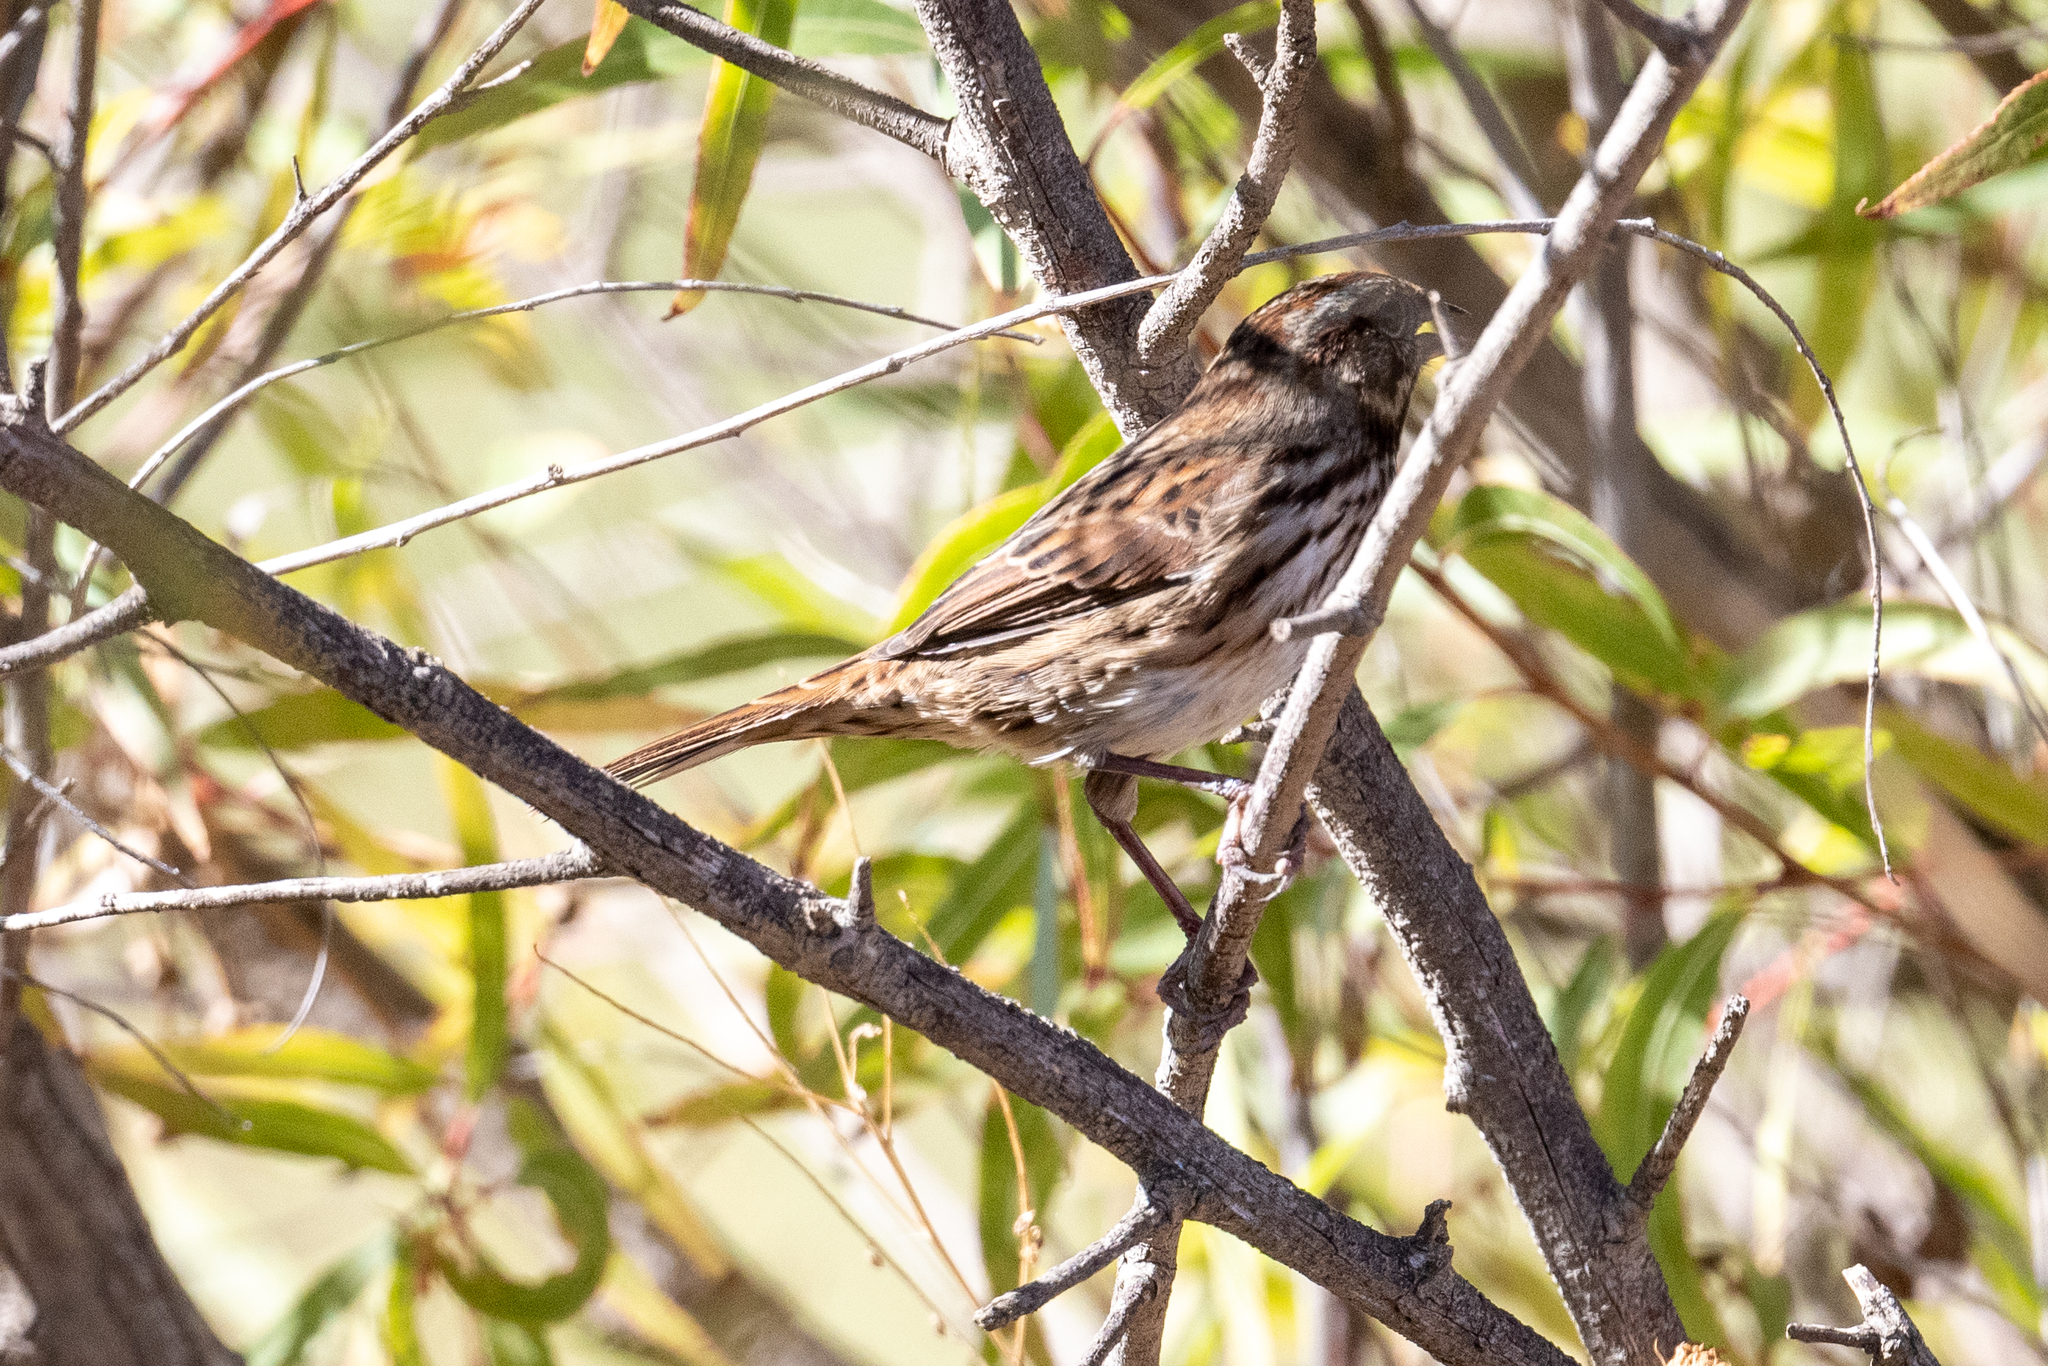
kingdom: Animalia
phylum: Chordata
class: Aves
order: Passeriformes
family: Passerellidae
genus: Melospiza
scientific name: Melospiza melodia
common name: Song sparrow
